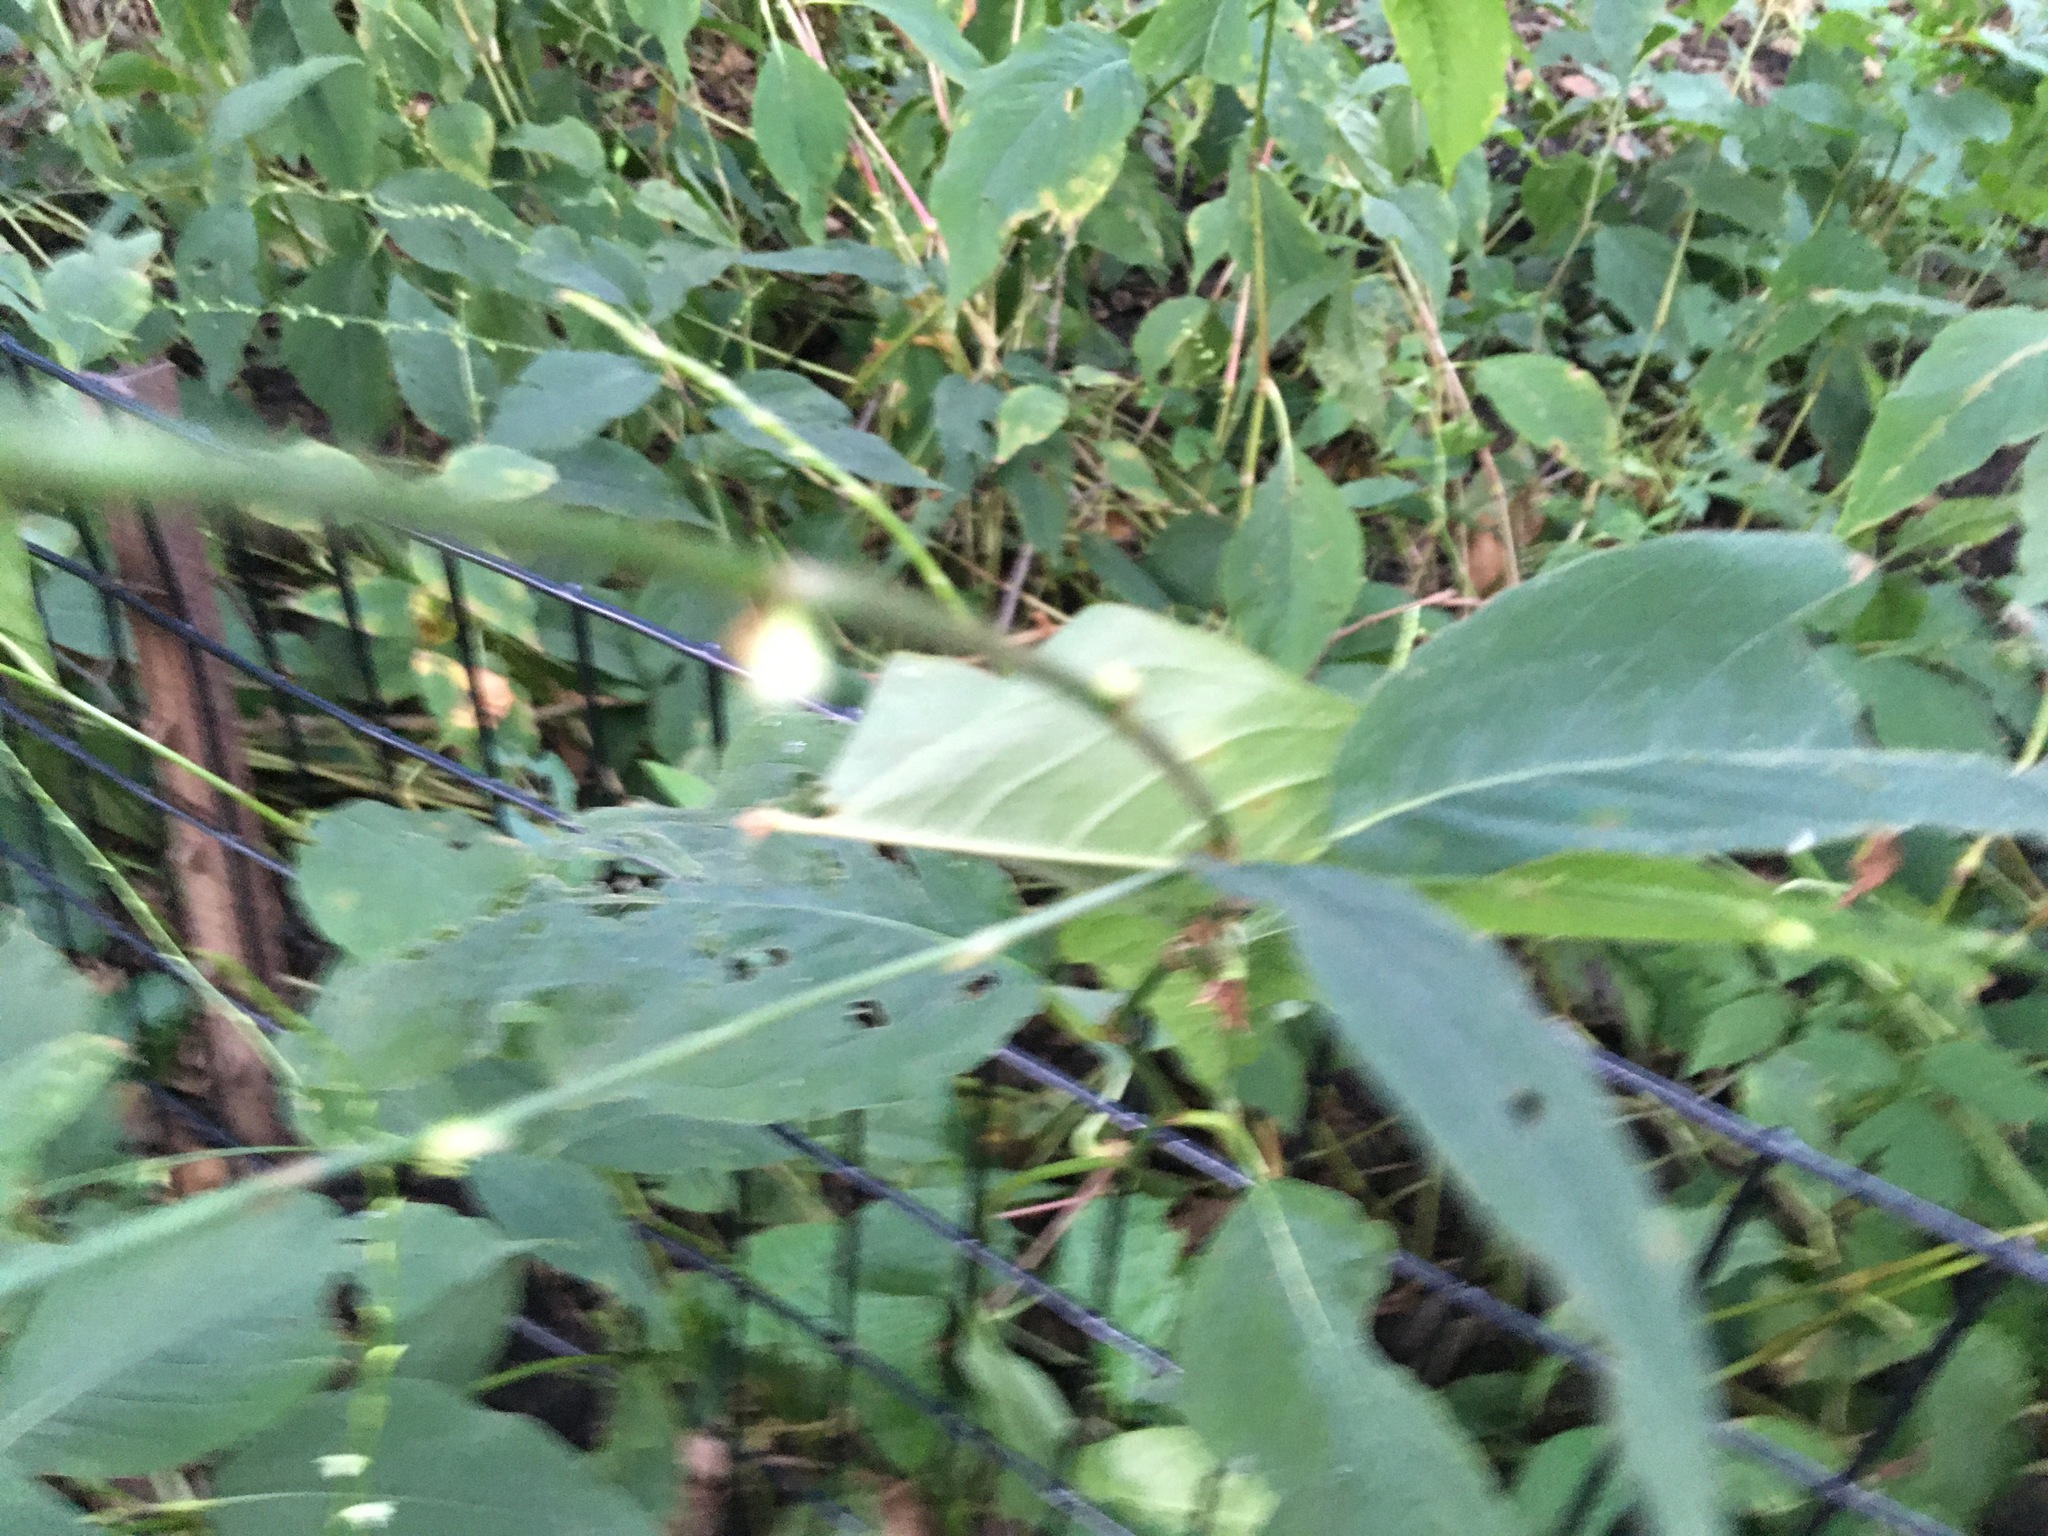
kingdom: Plantae
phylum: Tracheophyta
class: Magnoliopsida
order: Caryophyllales
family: Polygonaceae
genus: Persicaria
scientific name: Persicaria virginiana
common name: Jumpseed
